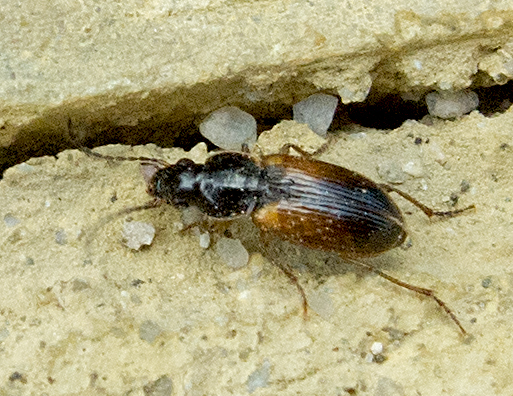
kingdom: Animalia
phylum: Arthropoda
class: Insecta
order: Coleoptera
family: Carabidae
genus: Stenolophus
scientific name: Stenolophus mixtus
